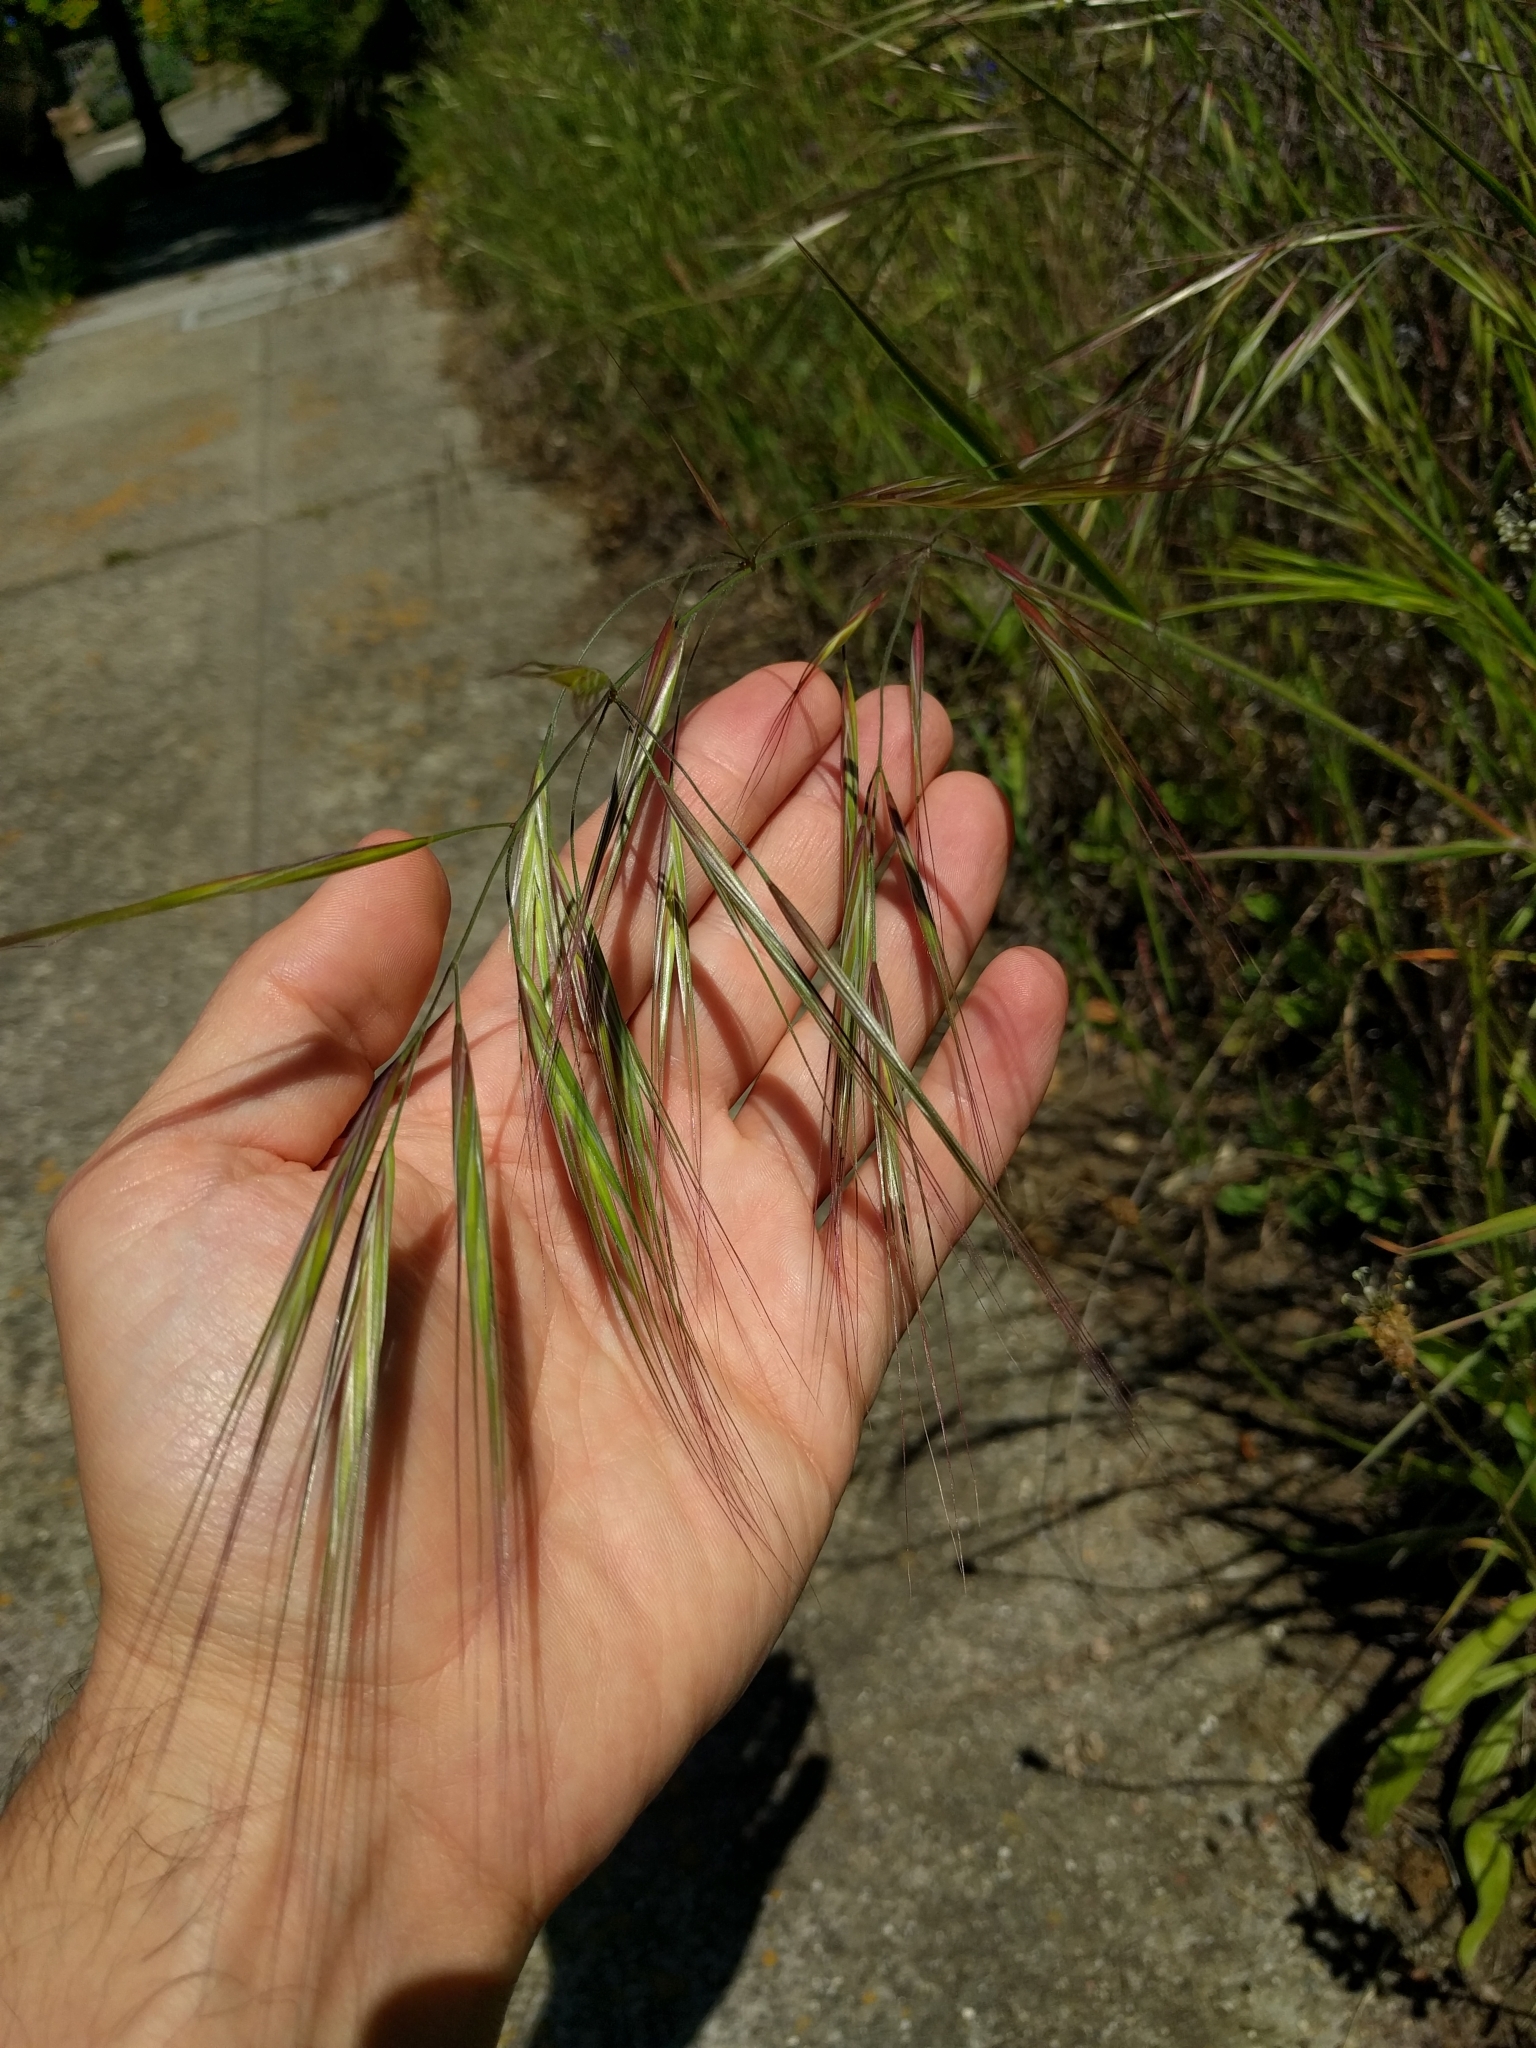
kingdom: Plantae
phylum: Tracheophyta
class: Liliopsida
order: Poales
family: Poaceae
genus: Bromus
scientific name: Bromus diandrus
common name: Ripgut brome
